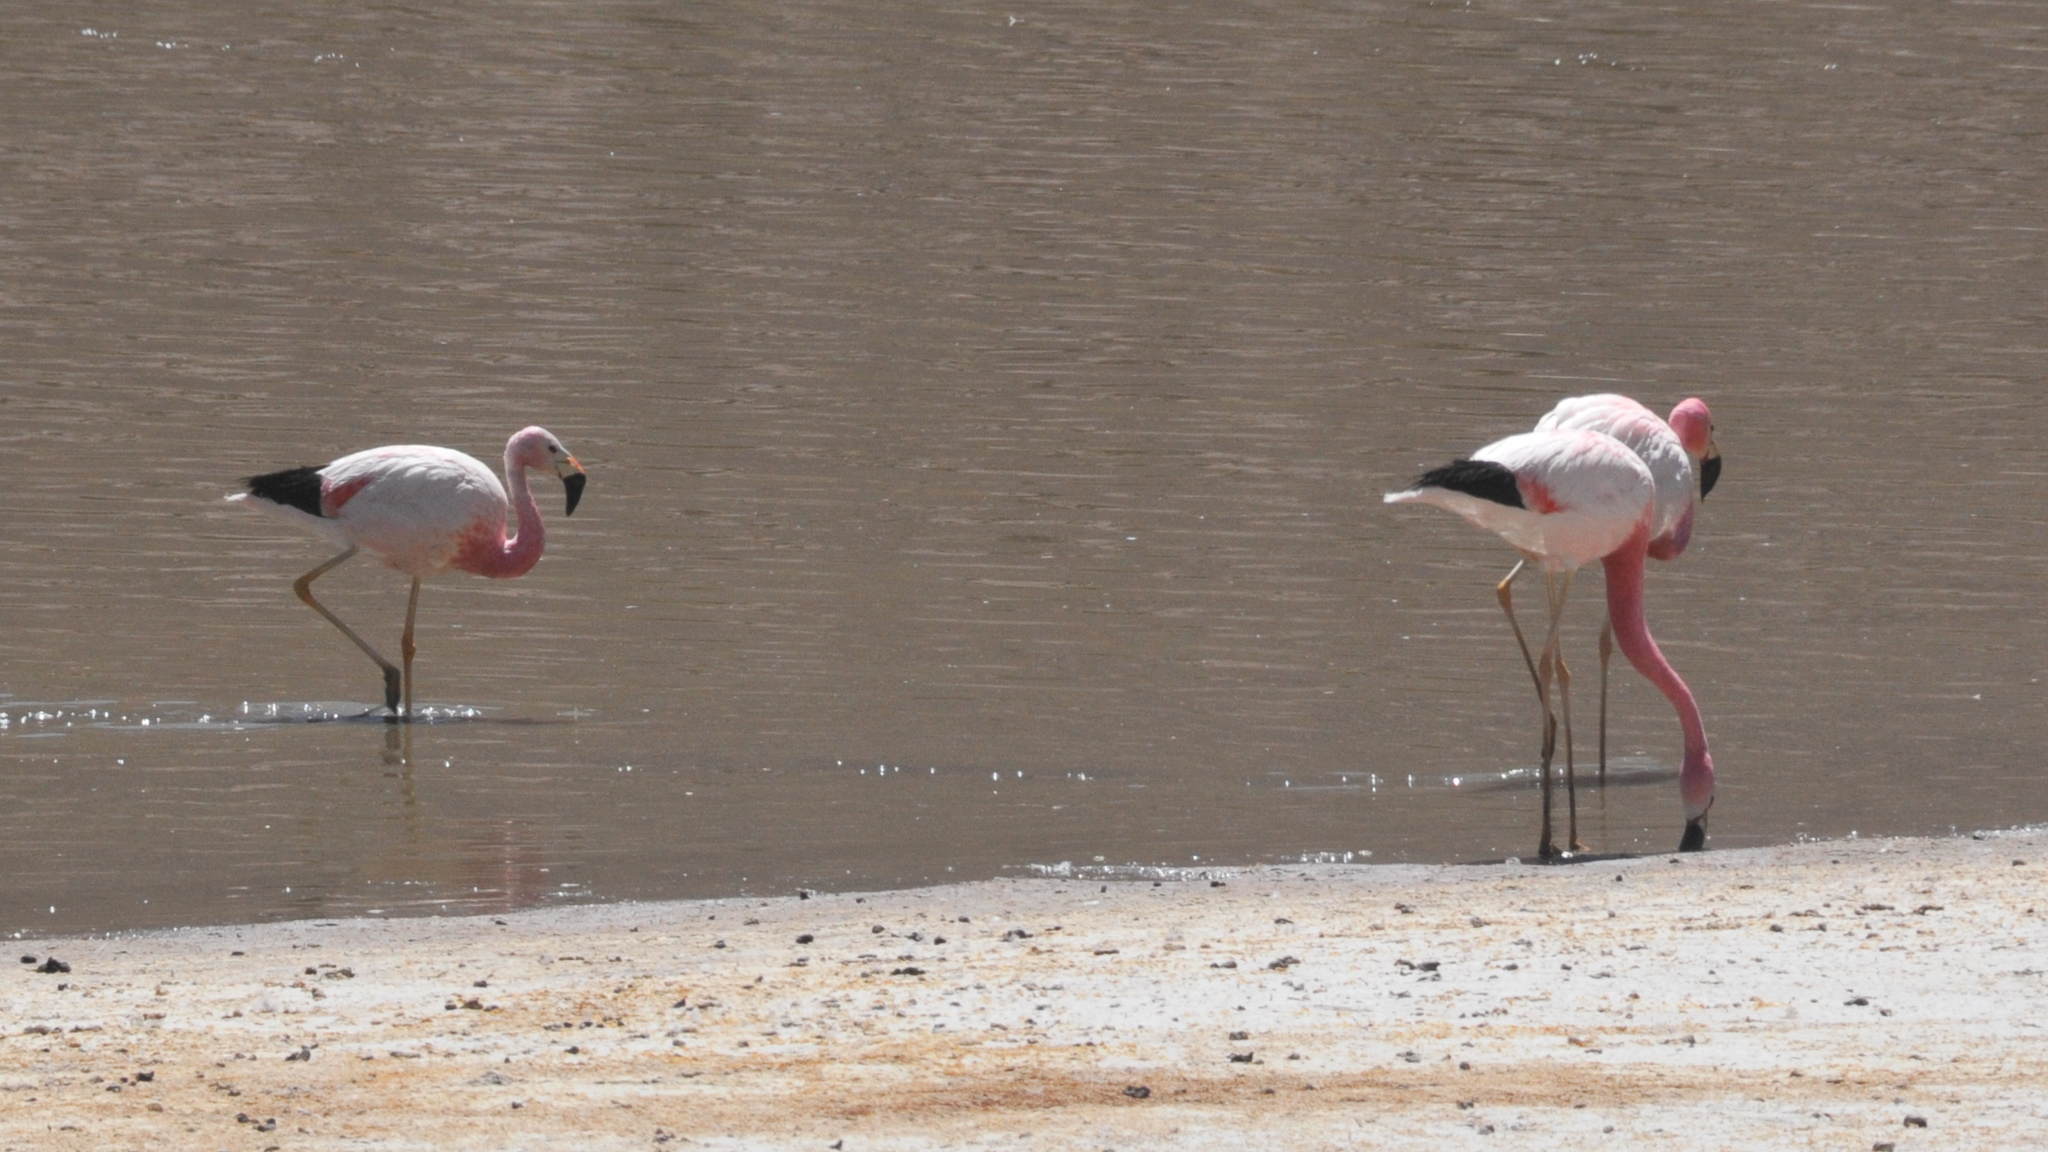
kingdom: Animalia
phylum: Chordata
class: Aves
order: Phoenicopteriformes
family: Phoenicopteridae
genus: Phoenicoparrus
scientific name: Phoenicoparrus andinus
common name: Andean flamingo
